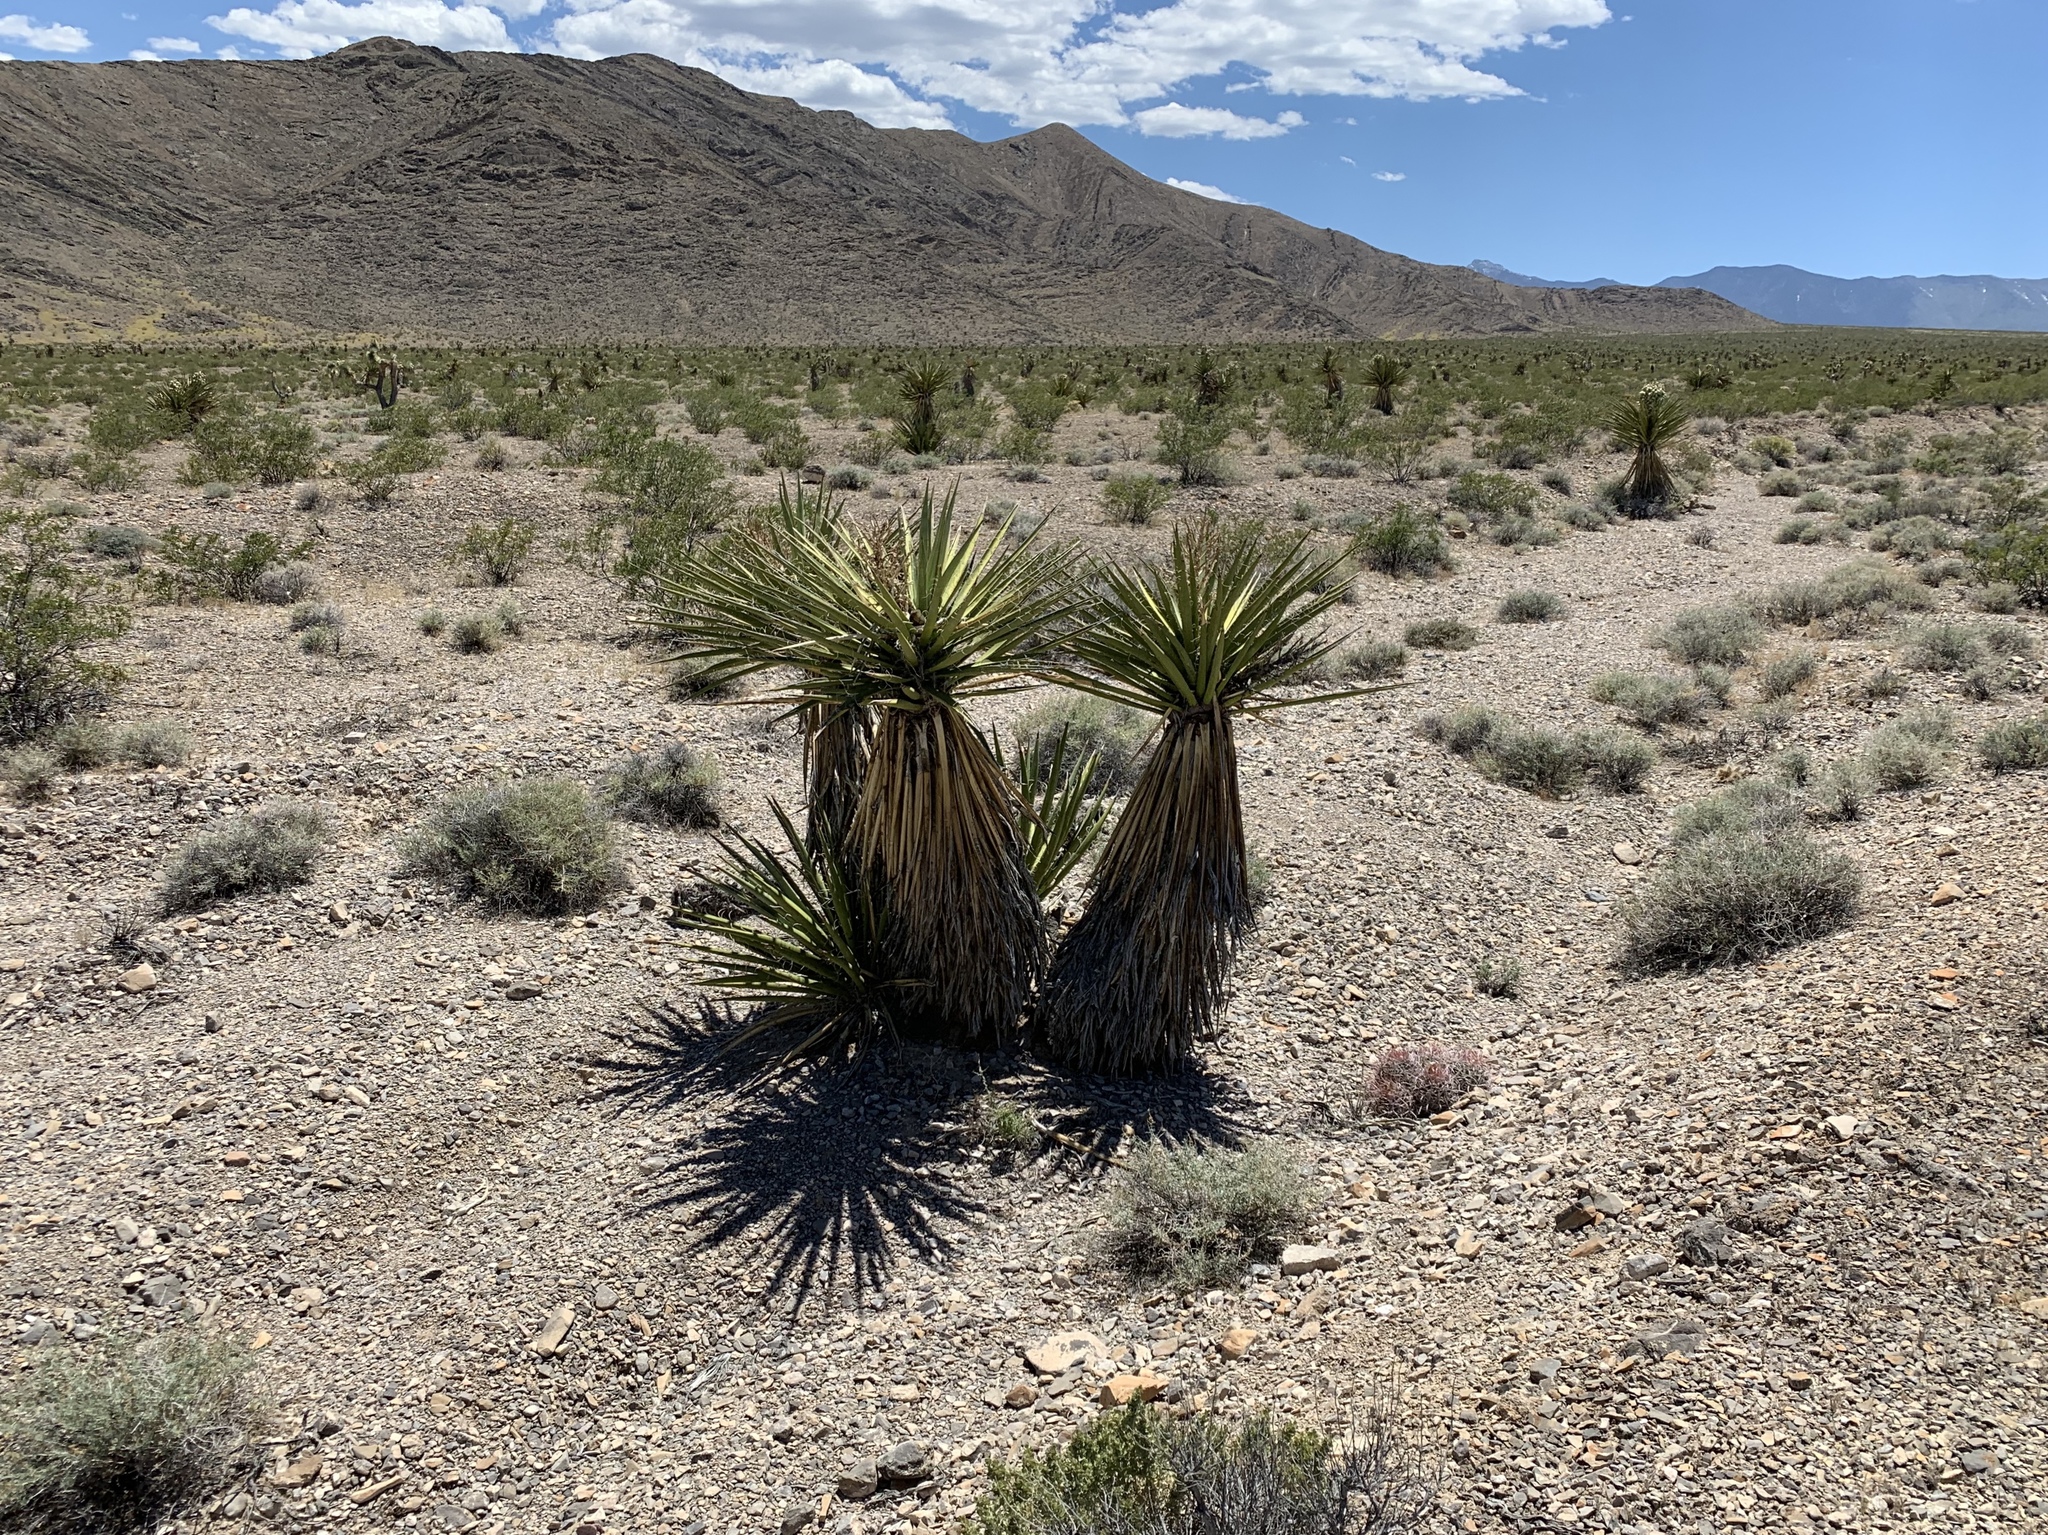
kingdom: Plantae
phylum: Tracheophyta
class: Liliopsida
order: Asparagales
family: Asparagaceae
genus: Yucca
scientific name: Yucca schidigera
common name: Mojave yucca
